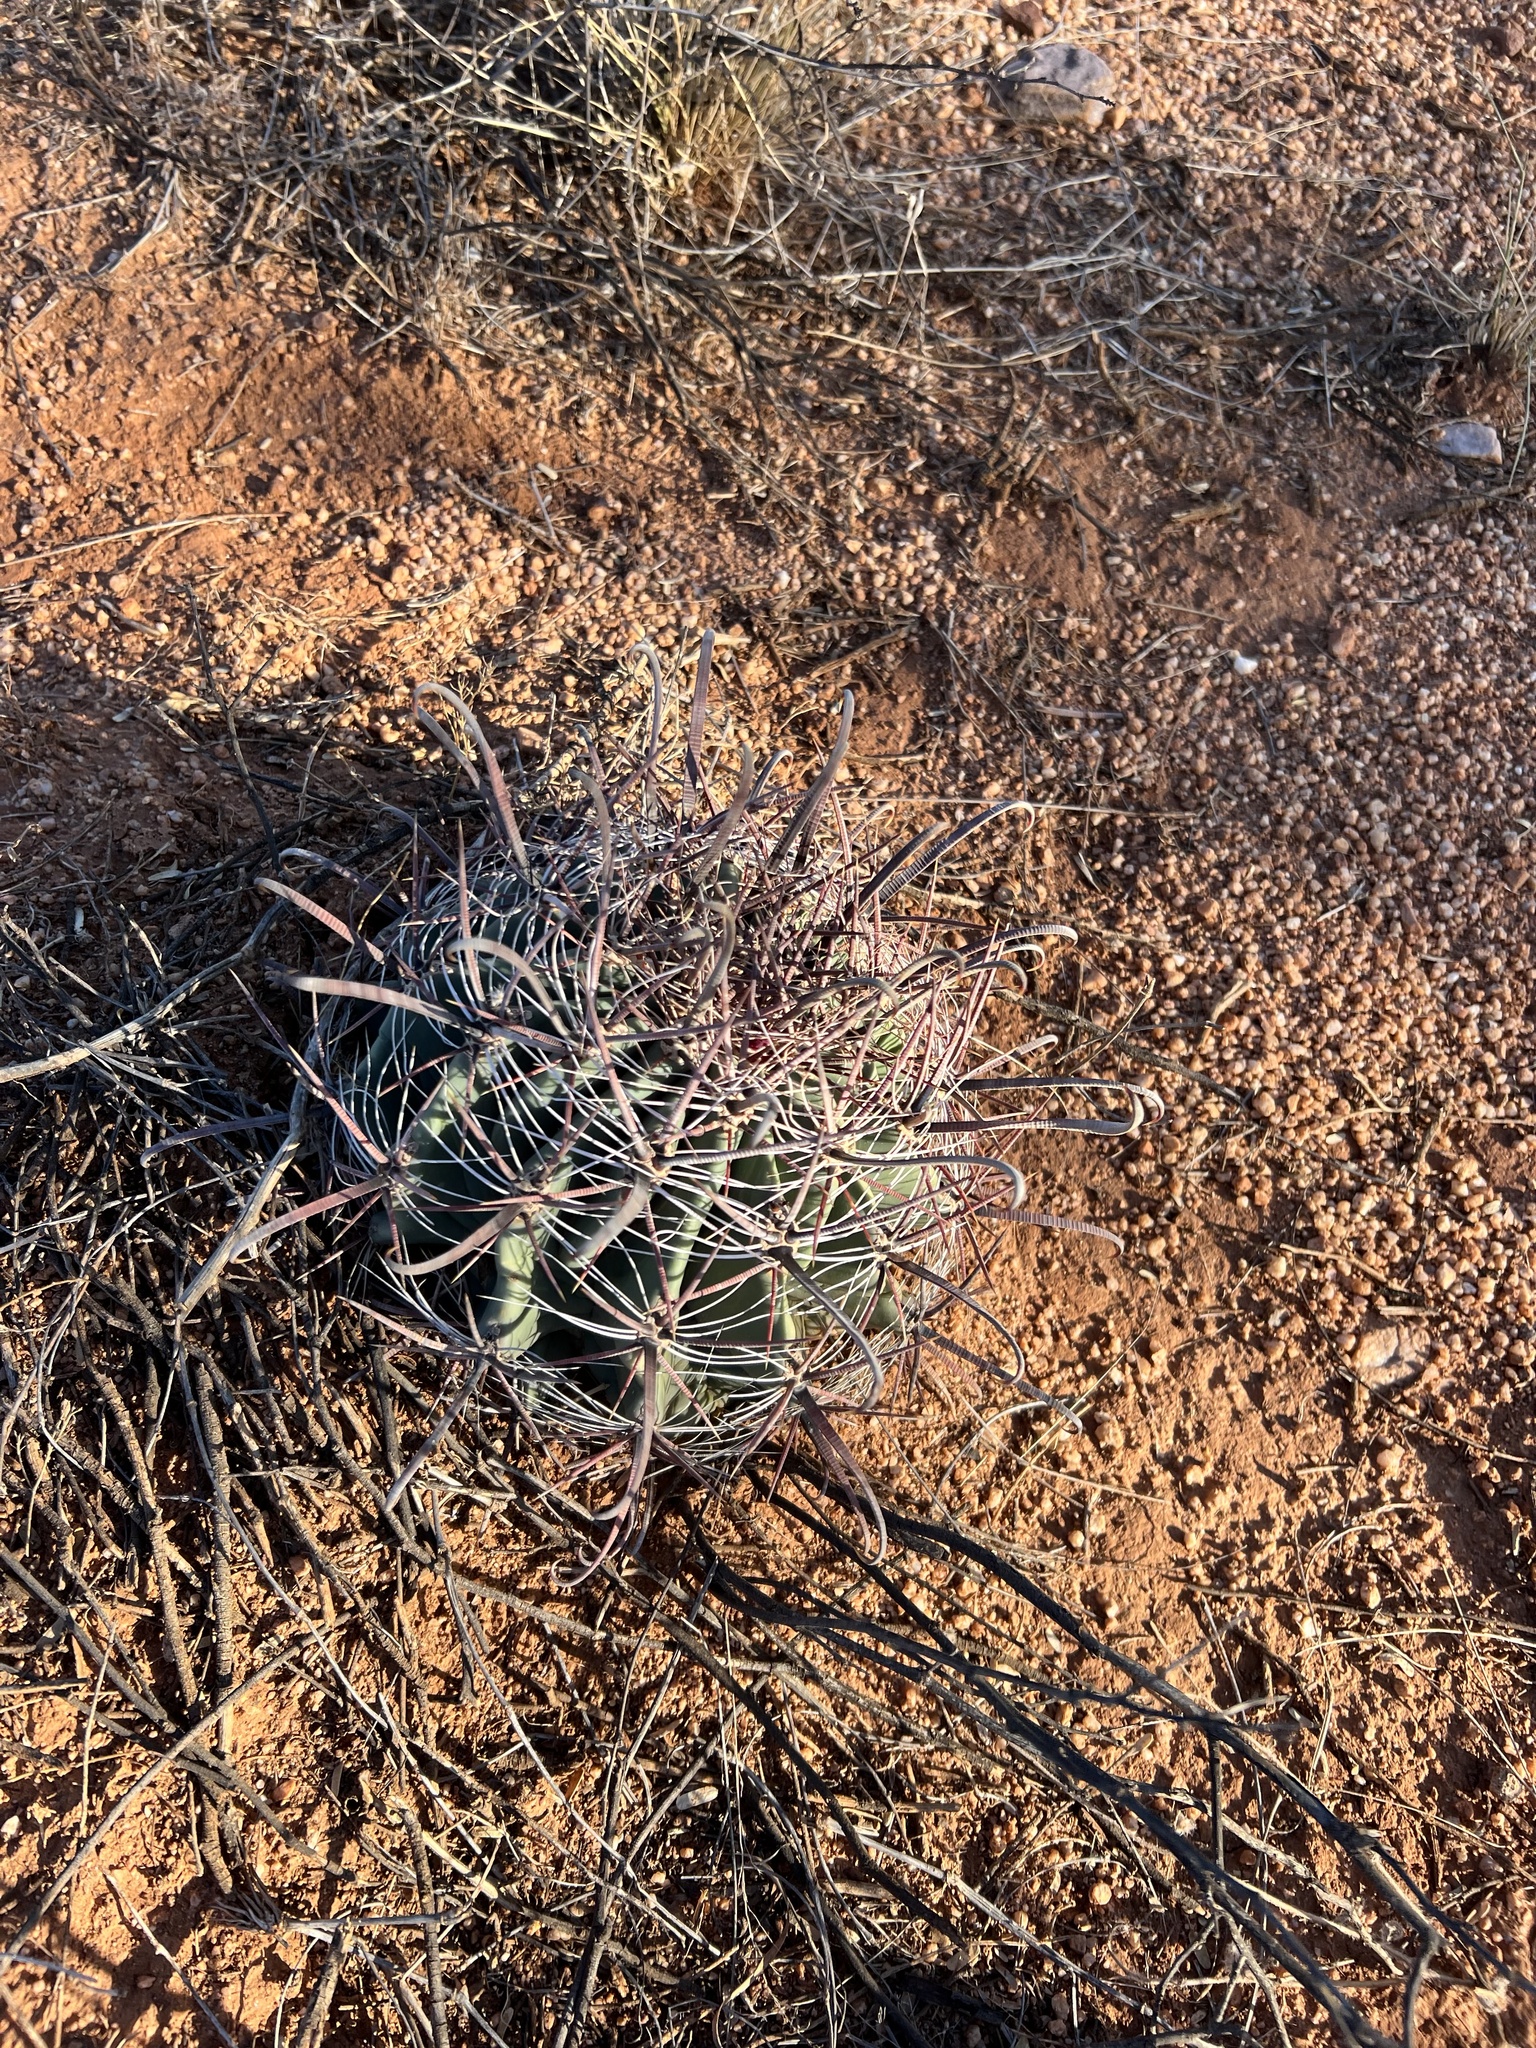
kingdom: Plantae
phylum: Tracheophyta
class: Magnoliopsida
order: Caryophyllales
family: Cactaceae
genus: Ferocactus
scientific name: Ferocactus wislizeni
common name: Candy barrel cactus
